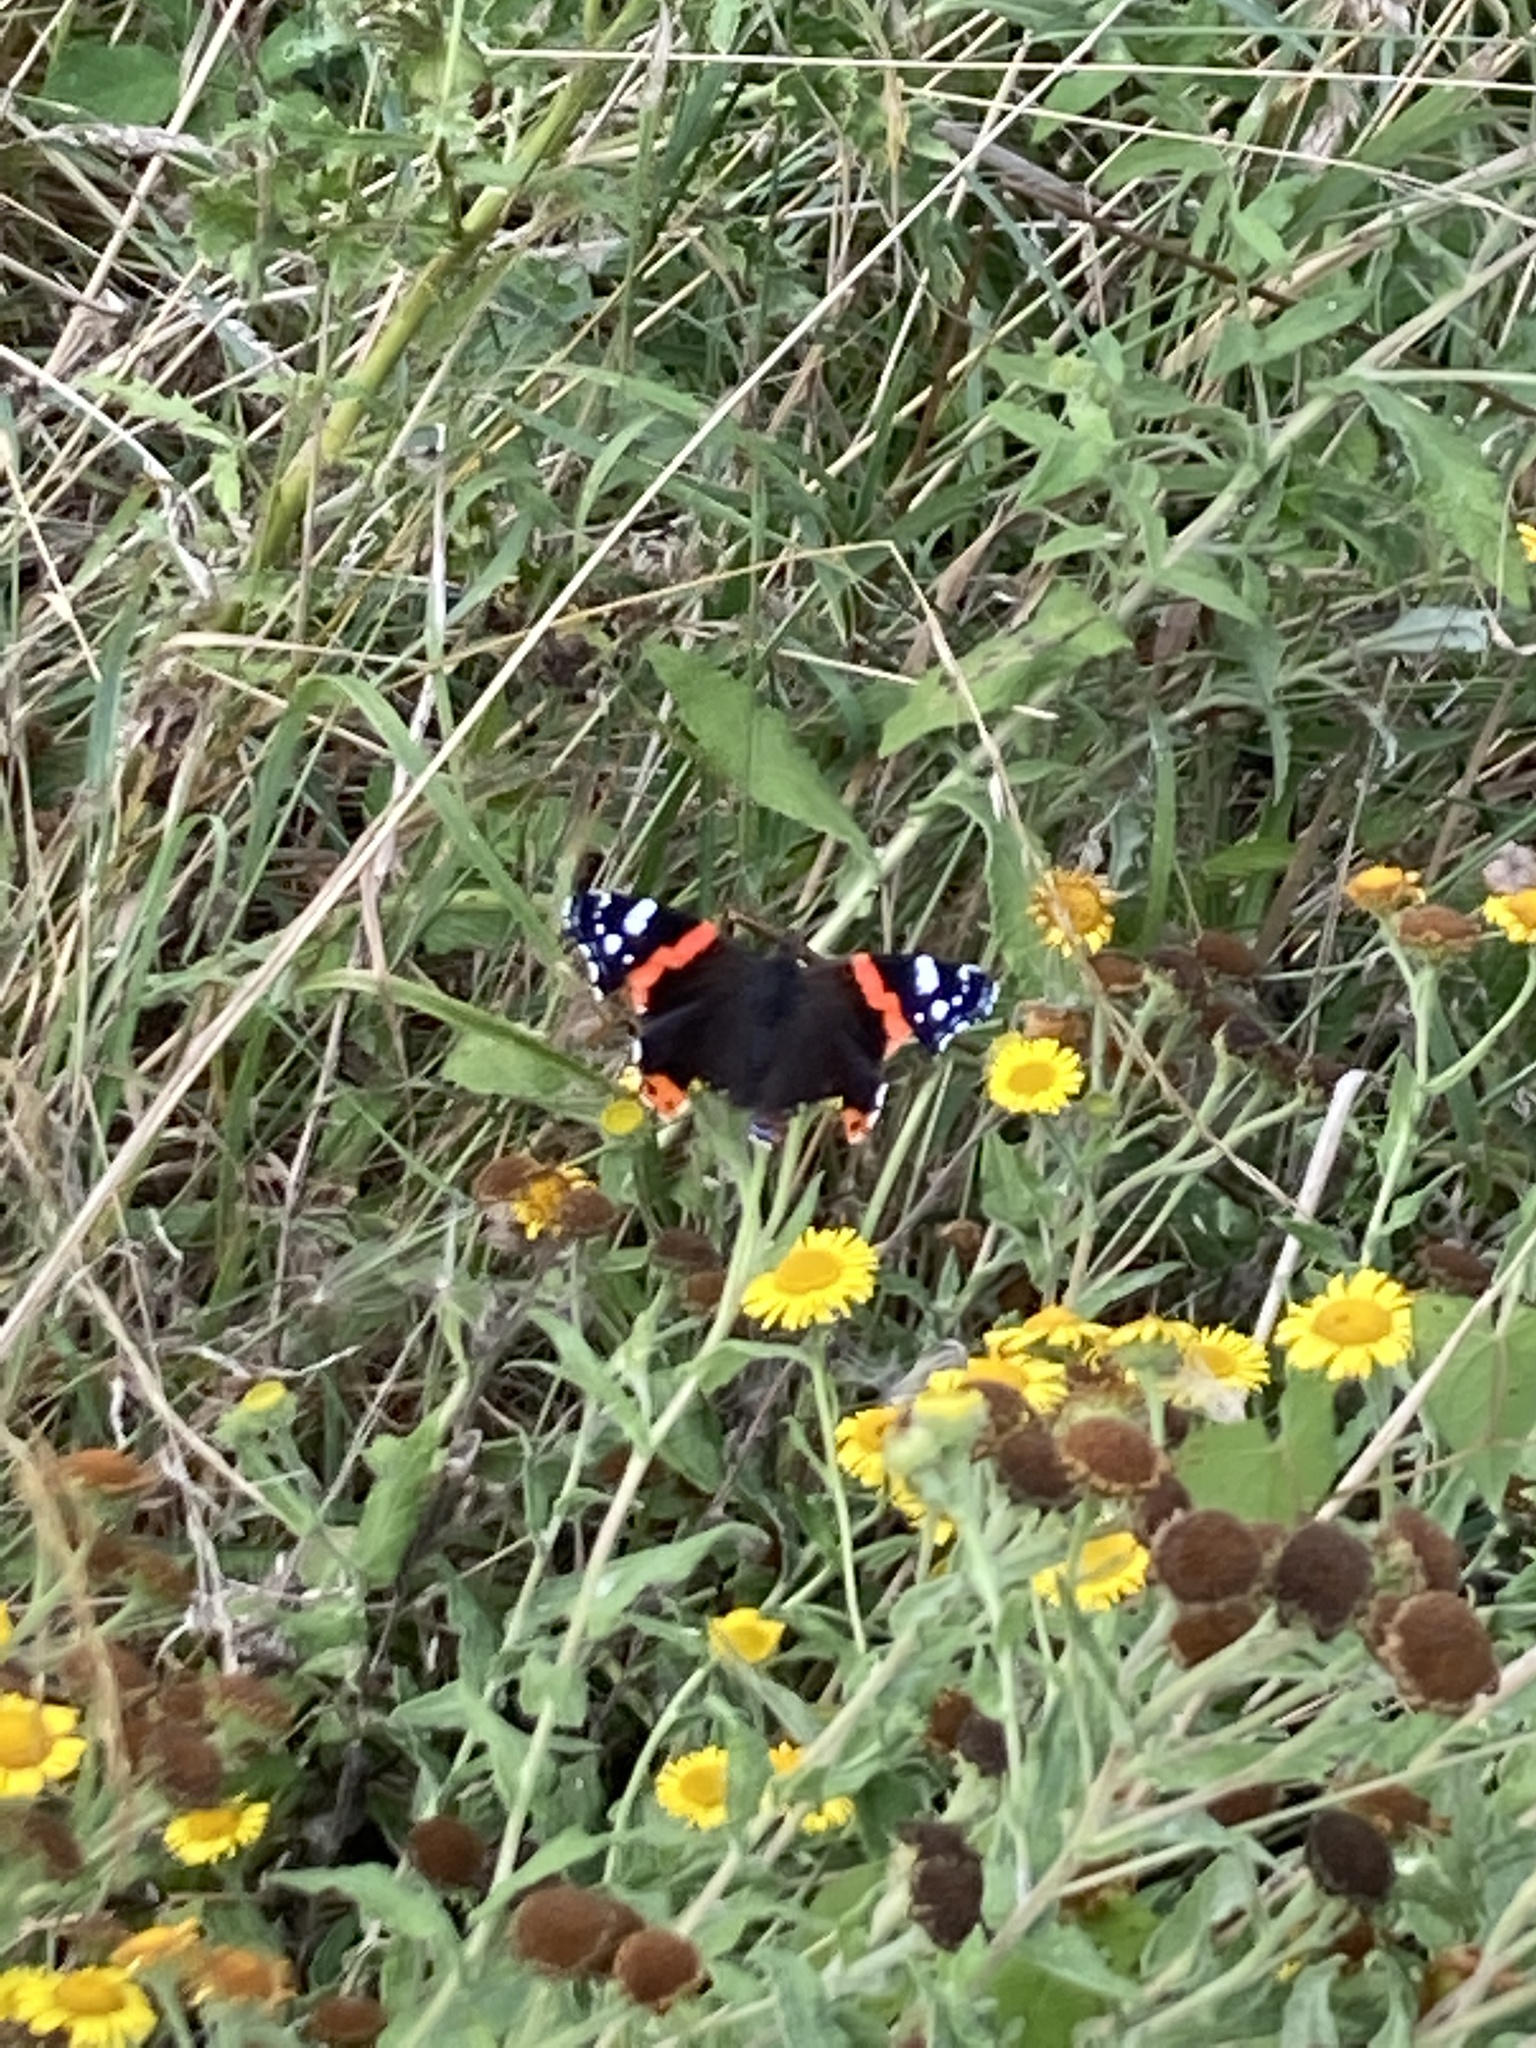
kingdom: Animalia
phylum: Arthropoda
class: Insecta
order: Lepidoptera
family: Nymphalidae
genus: Vanessa
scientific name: Vanessa atalanta
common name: Red admiral
